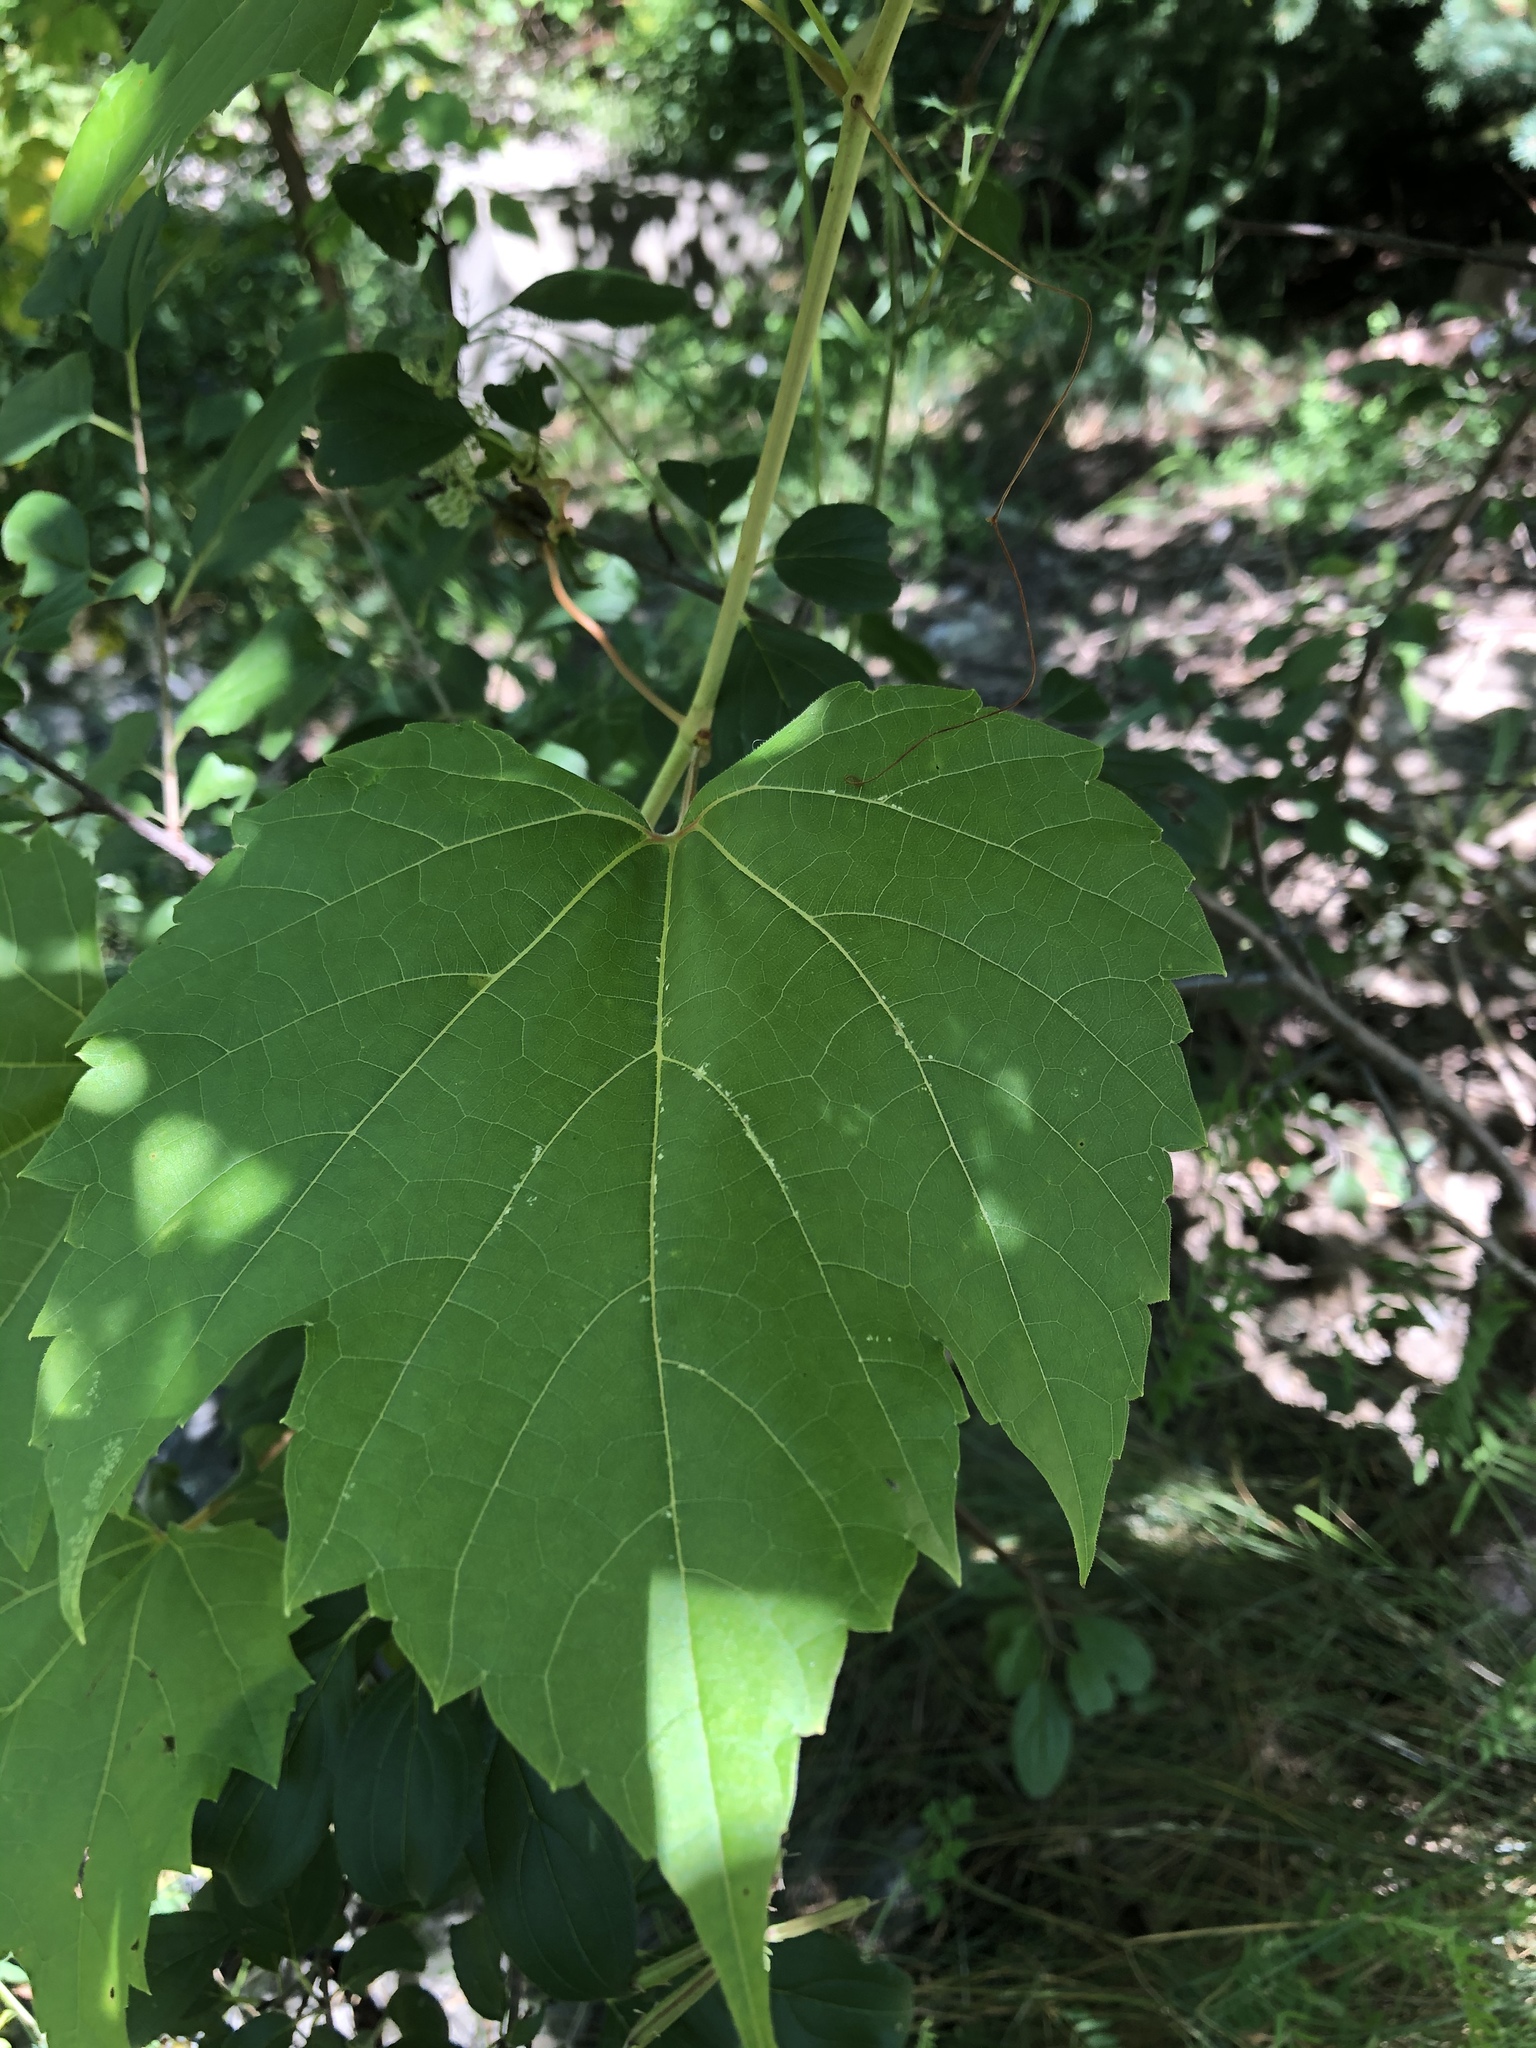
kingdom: Plantae
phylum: Tracheophyta
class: Magnoliopsida
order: Vitales
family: Vitaceae
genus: Vitis
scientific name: Vitis riparia
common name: Frost grape
